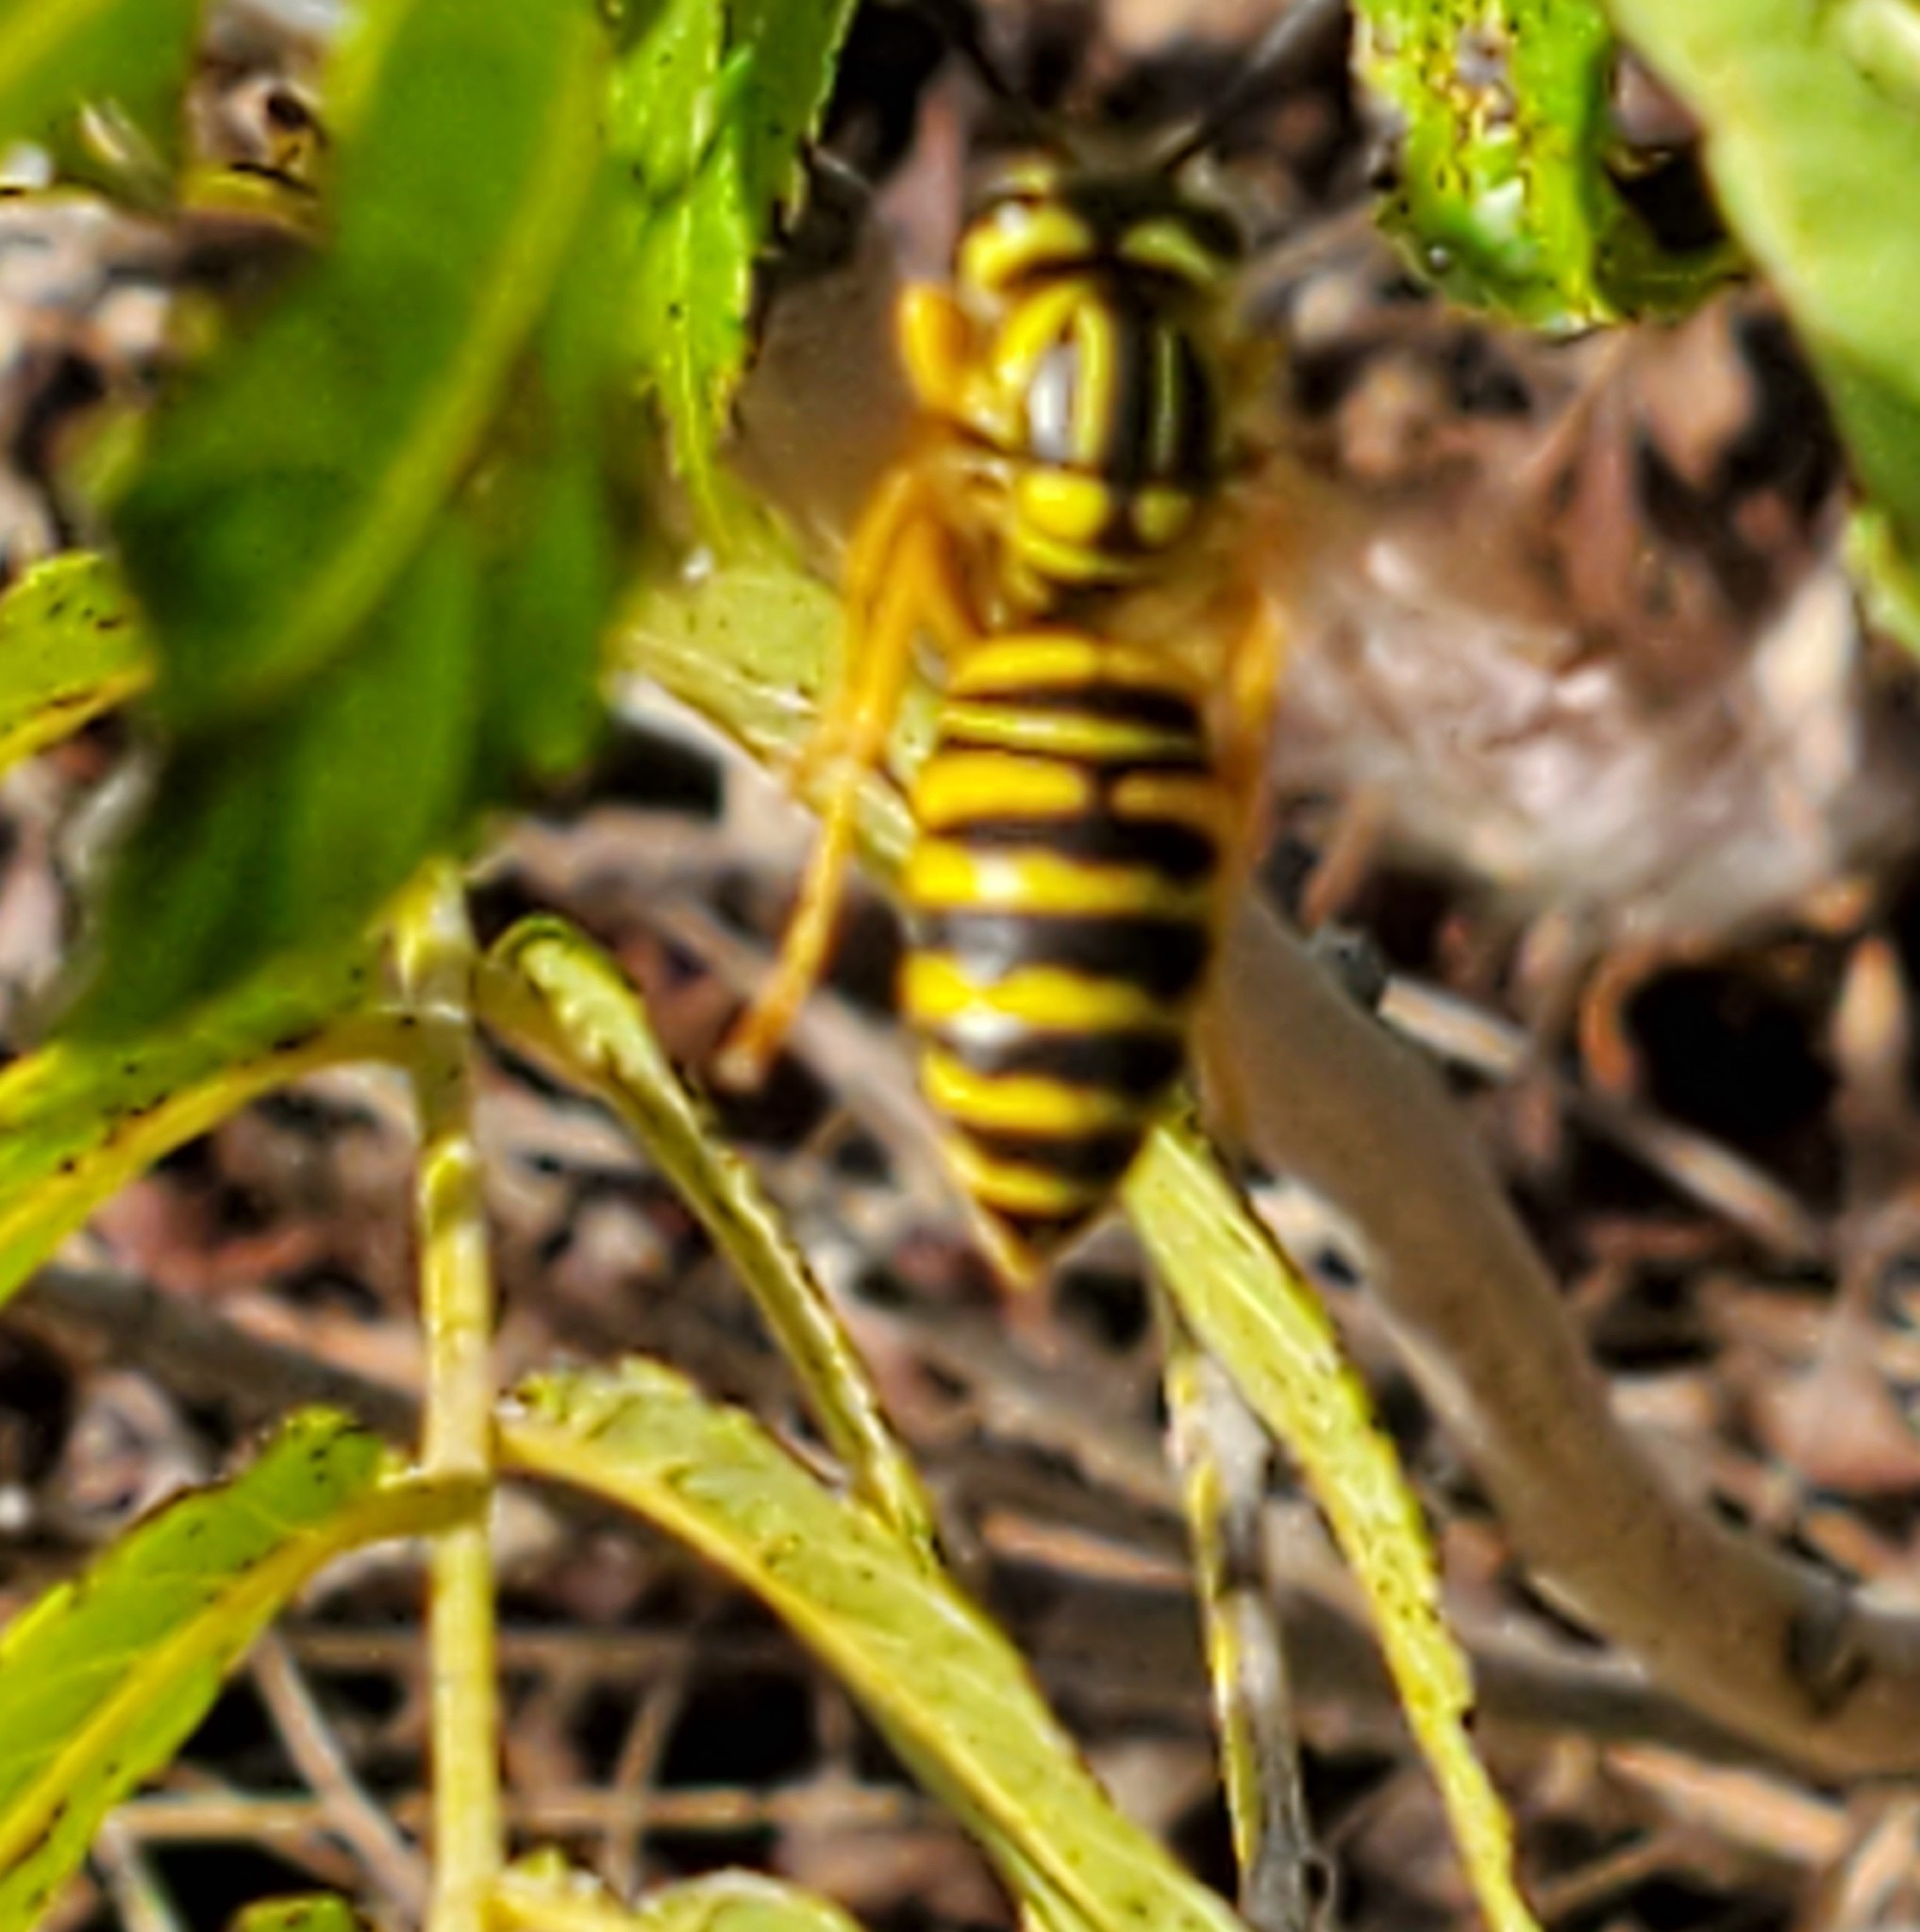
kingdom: Animalia
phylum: Arthropoda
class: Insecta
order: Hymenoptera
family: Vespidae
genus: Vespula
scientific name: Vespula squamosa
